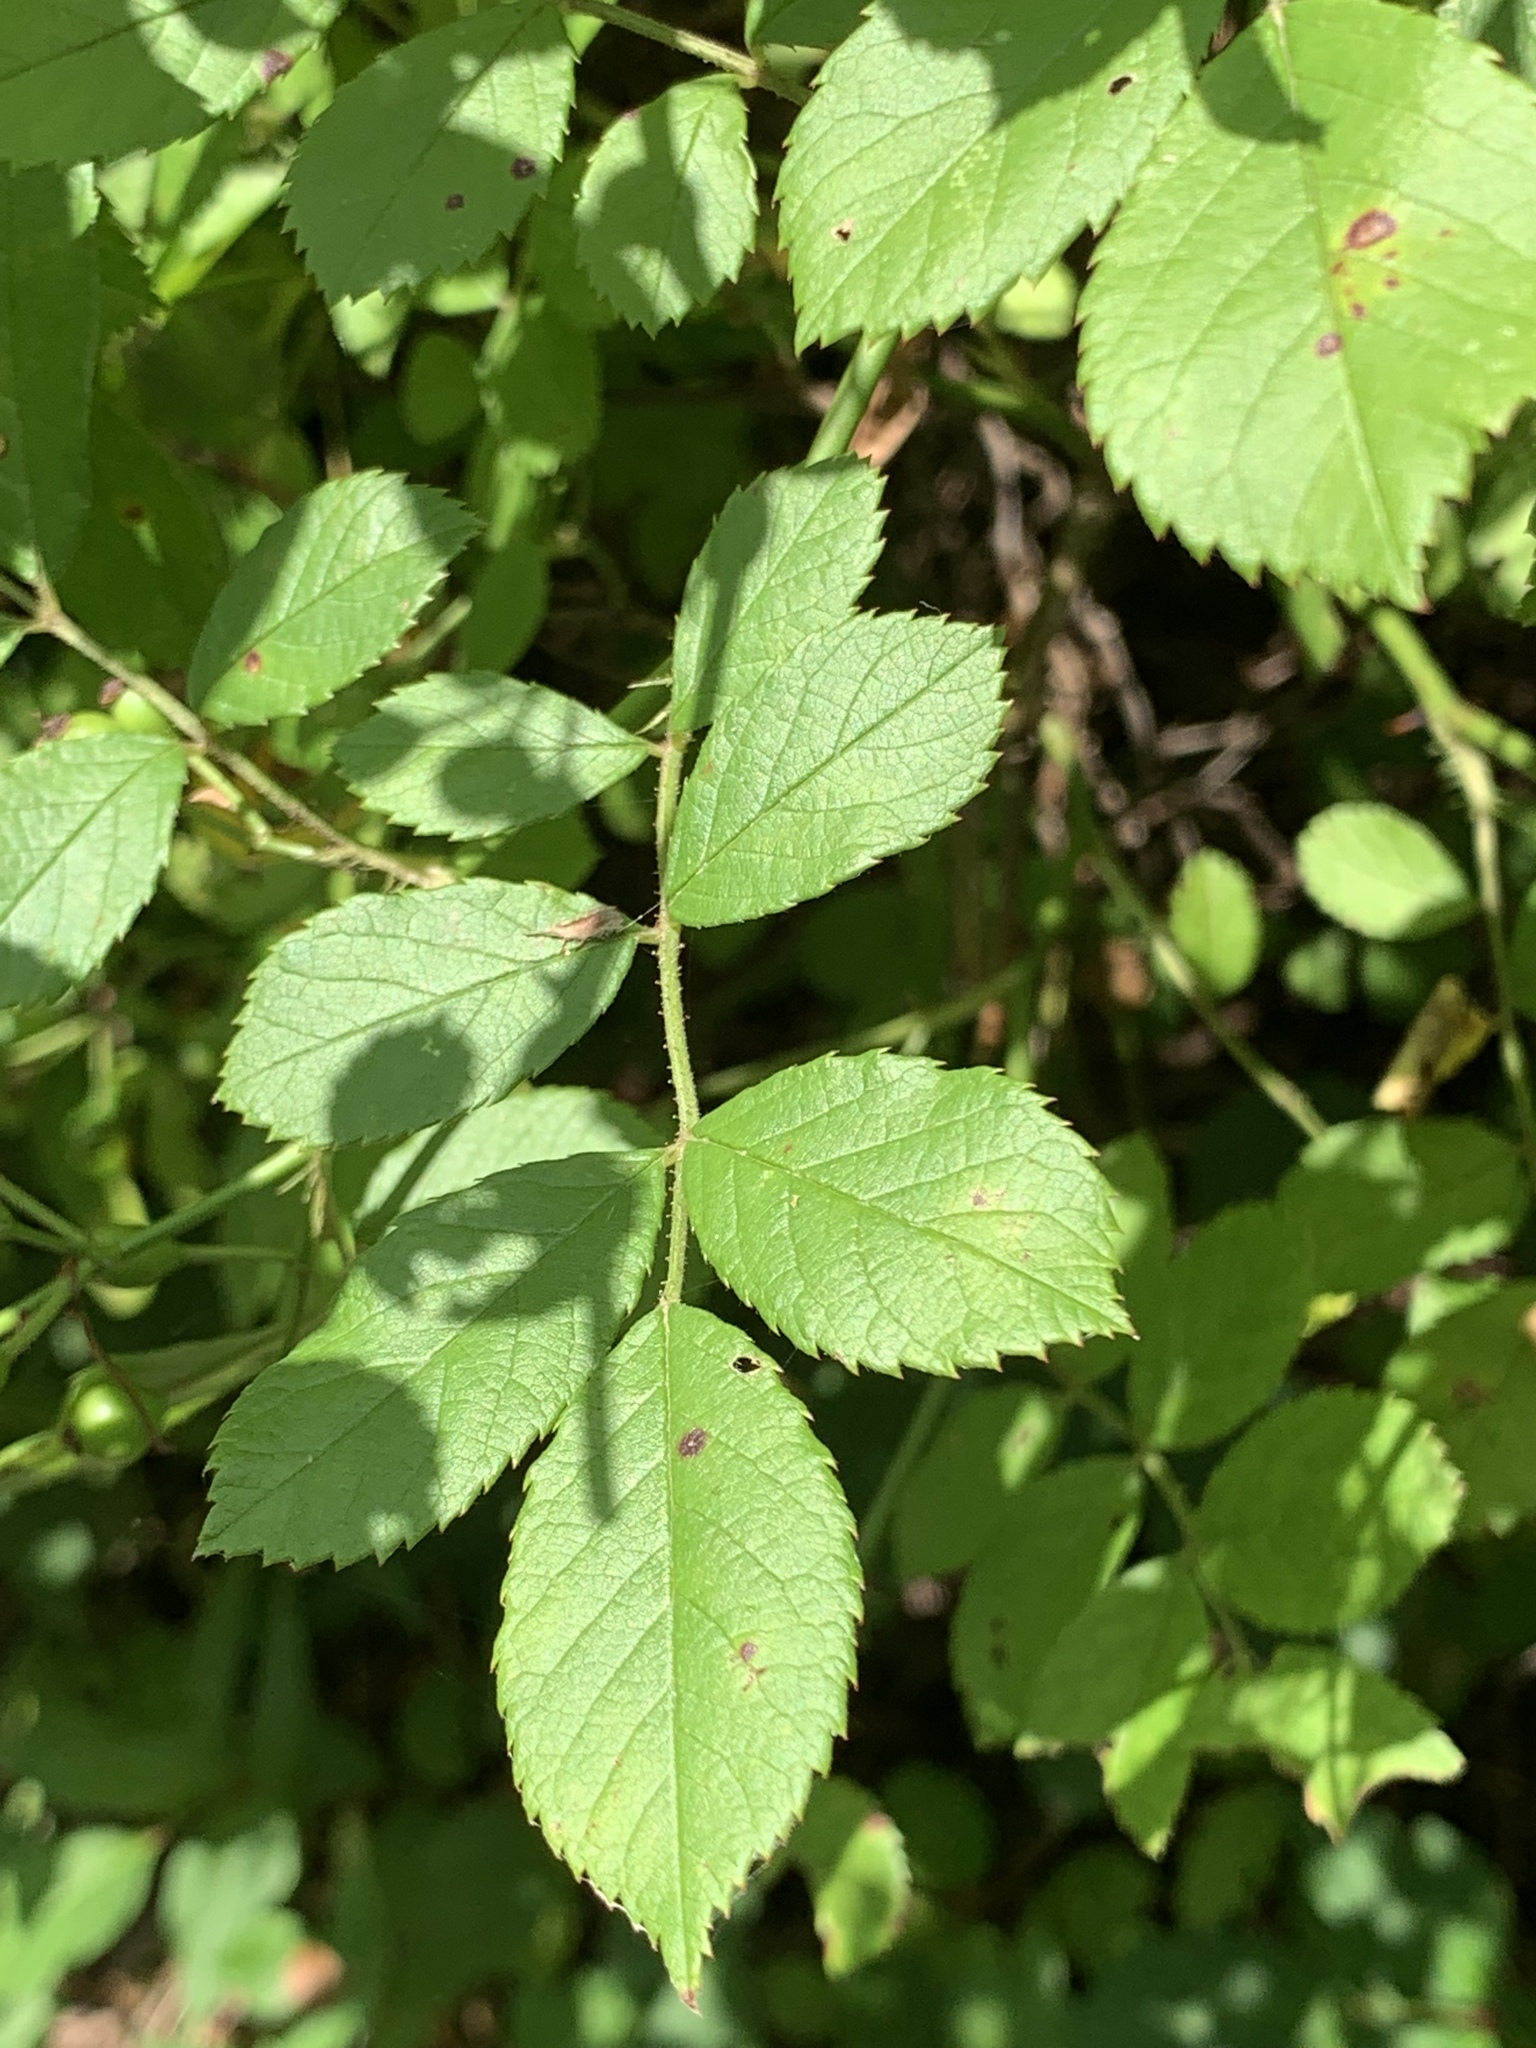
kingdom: Plantae
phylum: Tracheophyta
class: Magnoliopsida
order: Rosales
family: Rosaceae
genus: Rosa
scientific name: Rosa multiflora
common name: Multiflora rose
